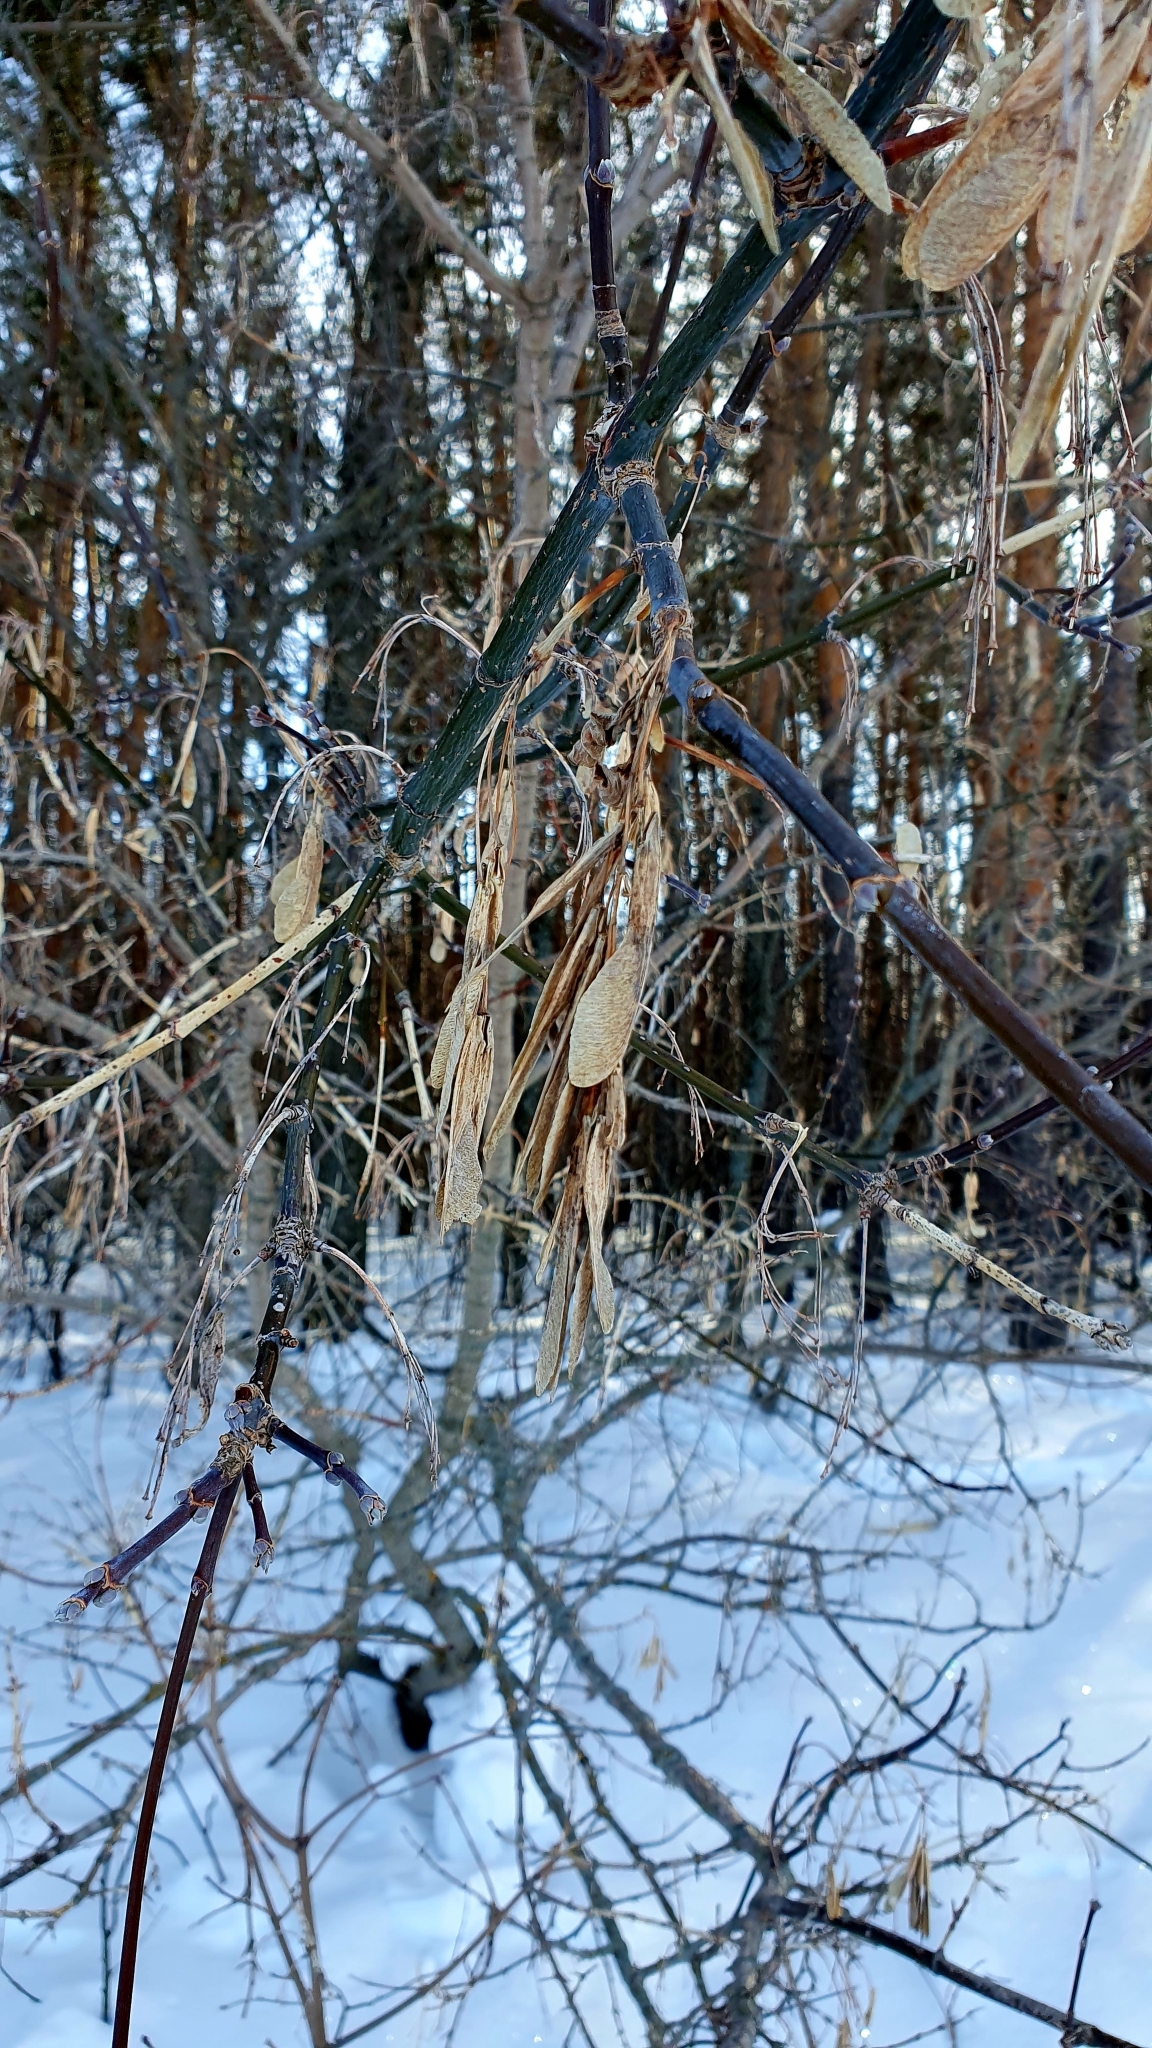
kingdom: Plantae
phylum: Tracheophyta
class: Magnoliopsida
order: Sapindales
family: Sapindaceae
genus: Acer
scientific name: Acer negundo
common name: Ashleaf maple
